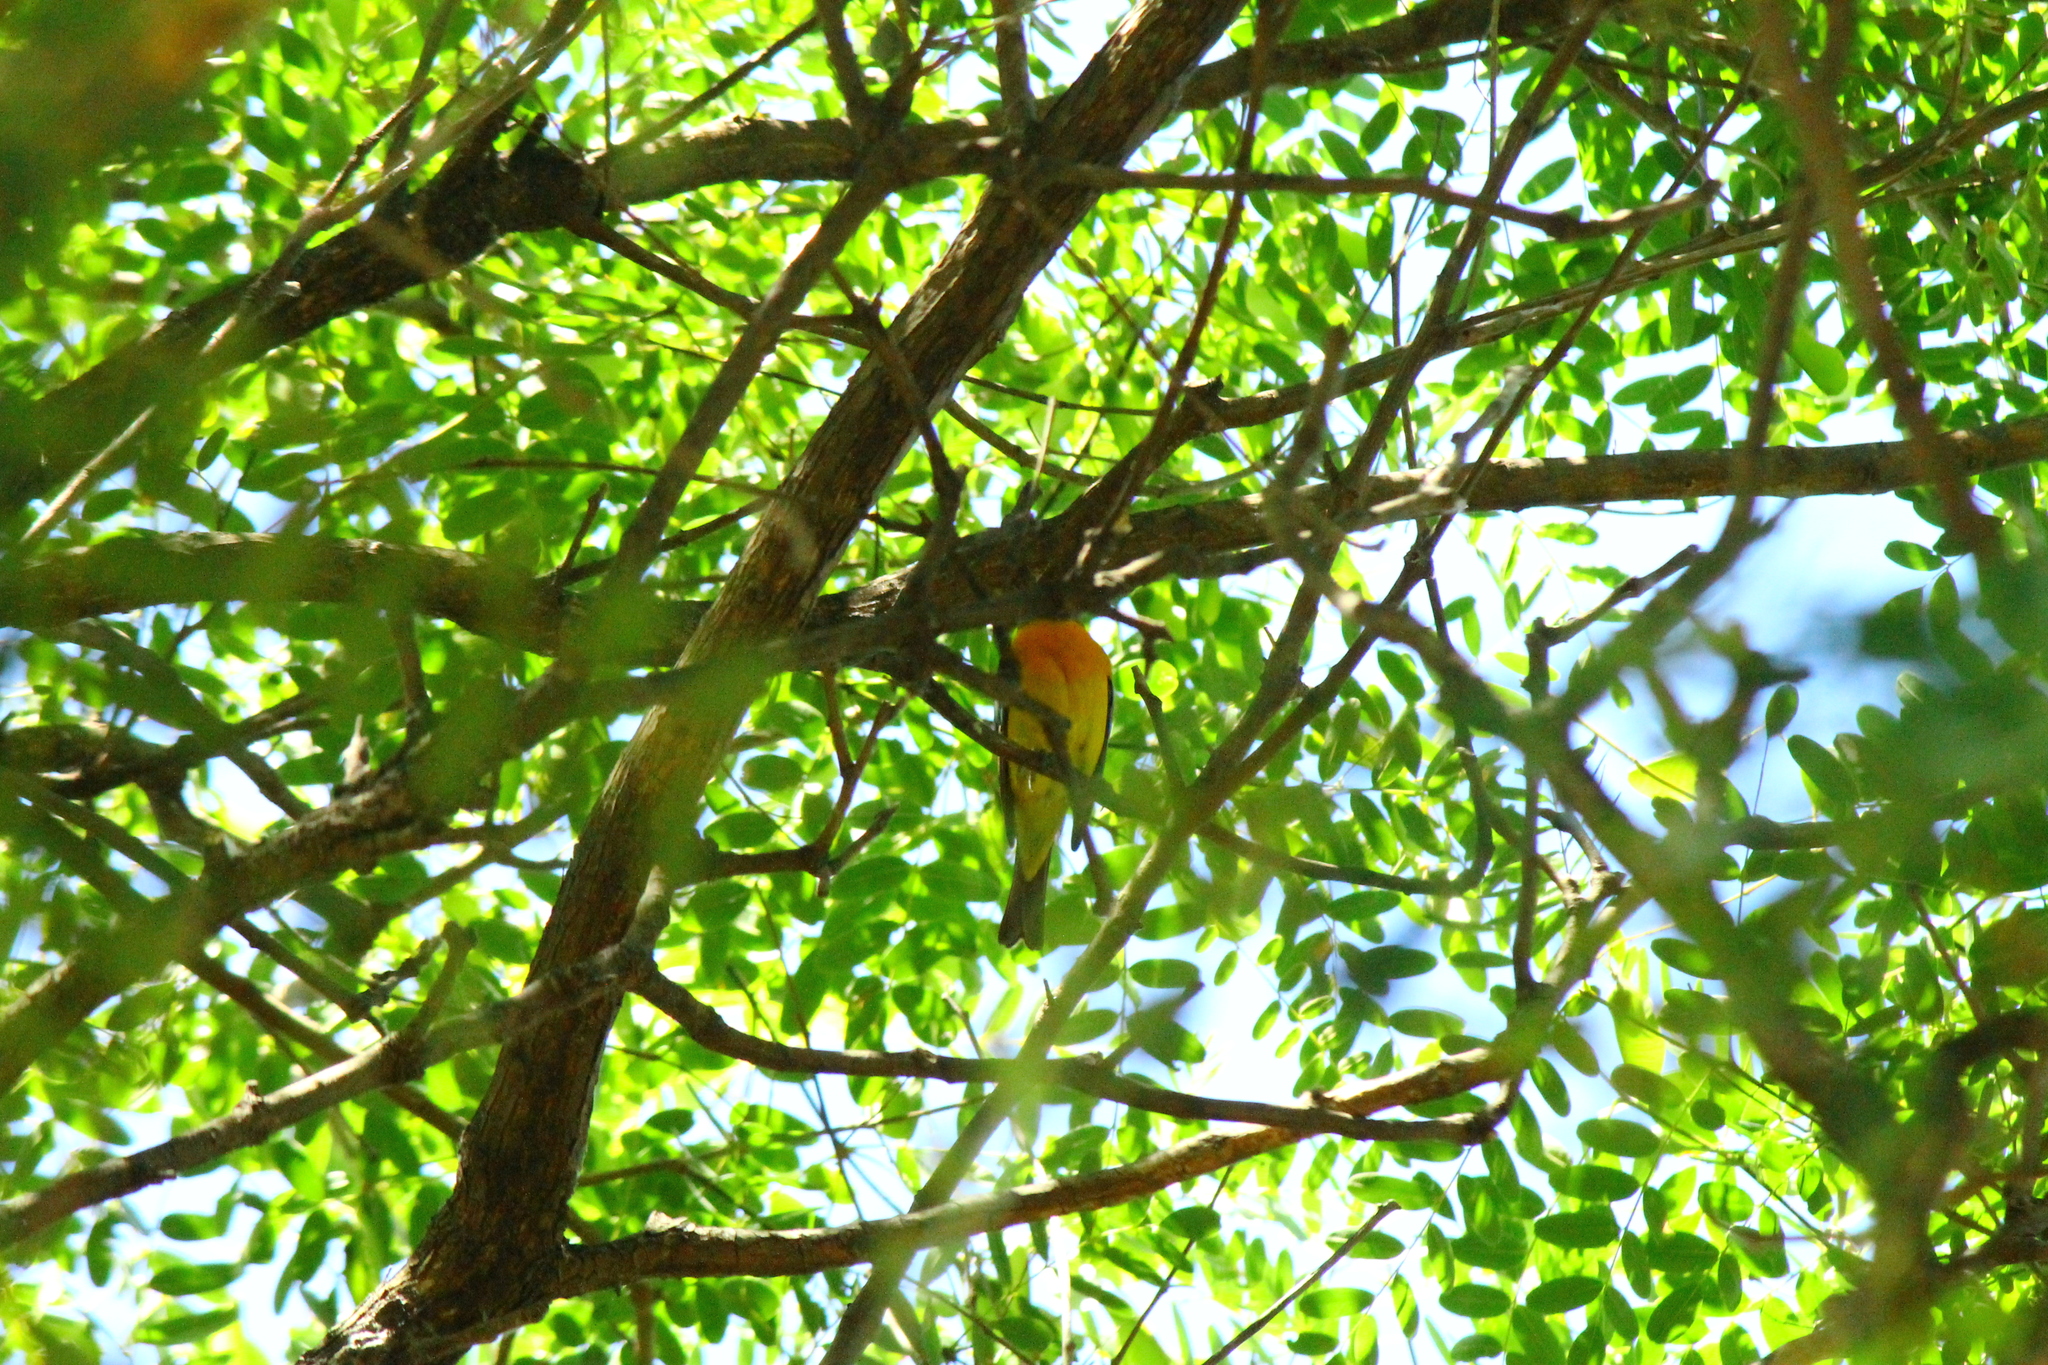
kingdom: Animalia
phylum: Chordata
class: Aves
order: Passeriformes
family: Thraupidae
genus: Rauenia
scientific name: Rauenia bonariensis
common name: Blue-and-yellow tanager
